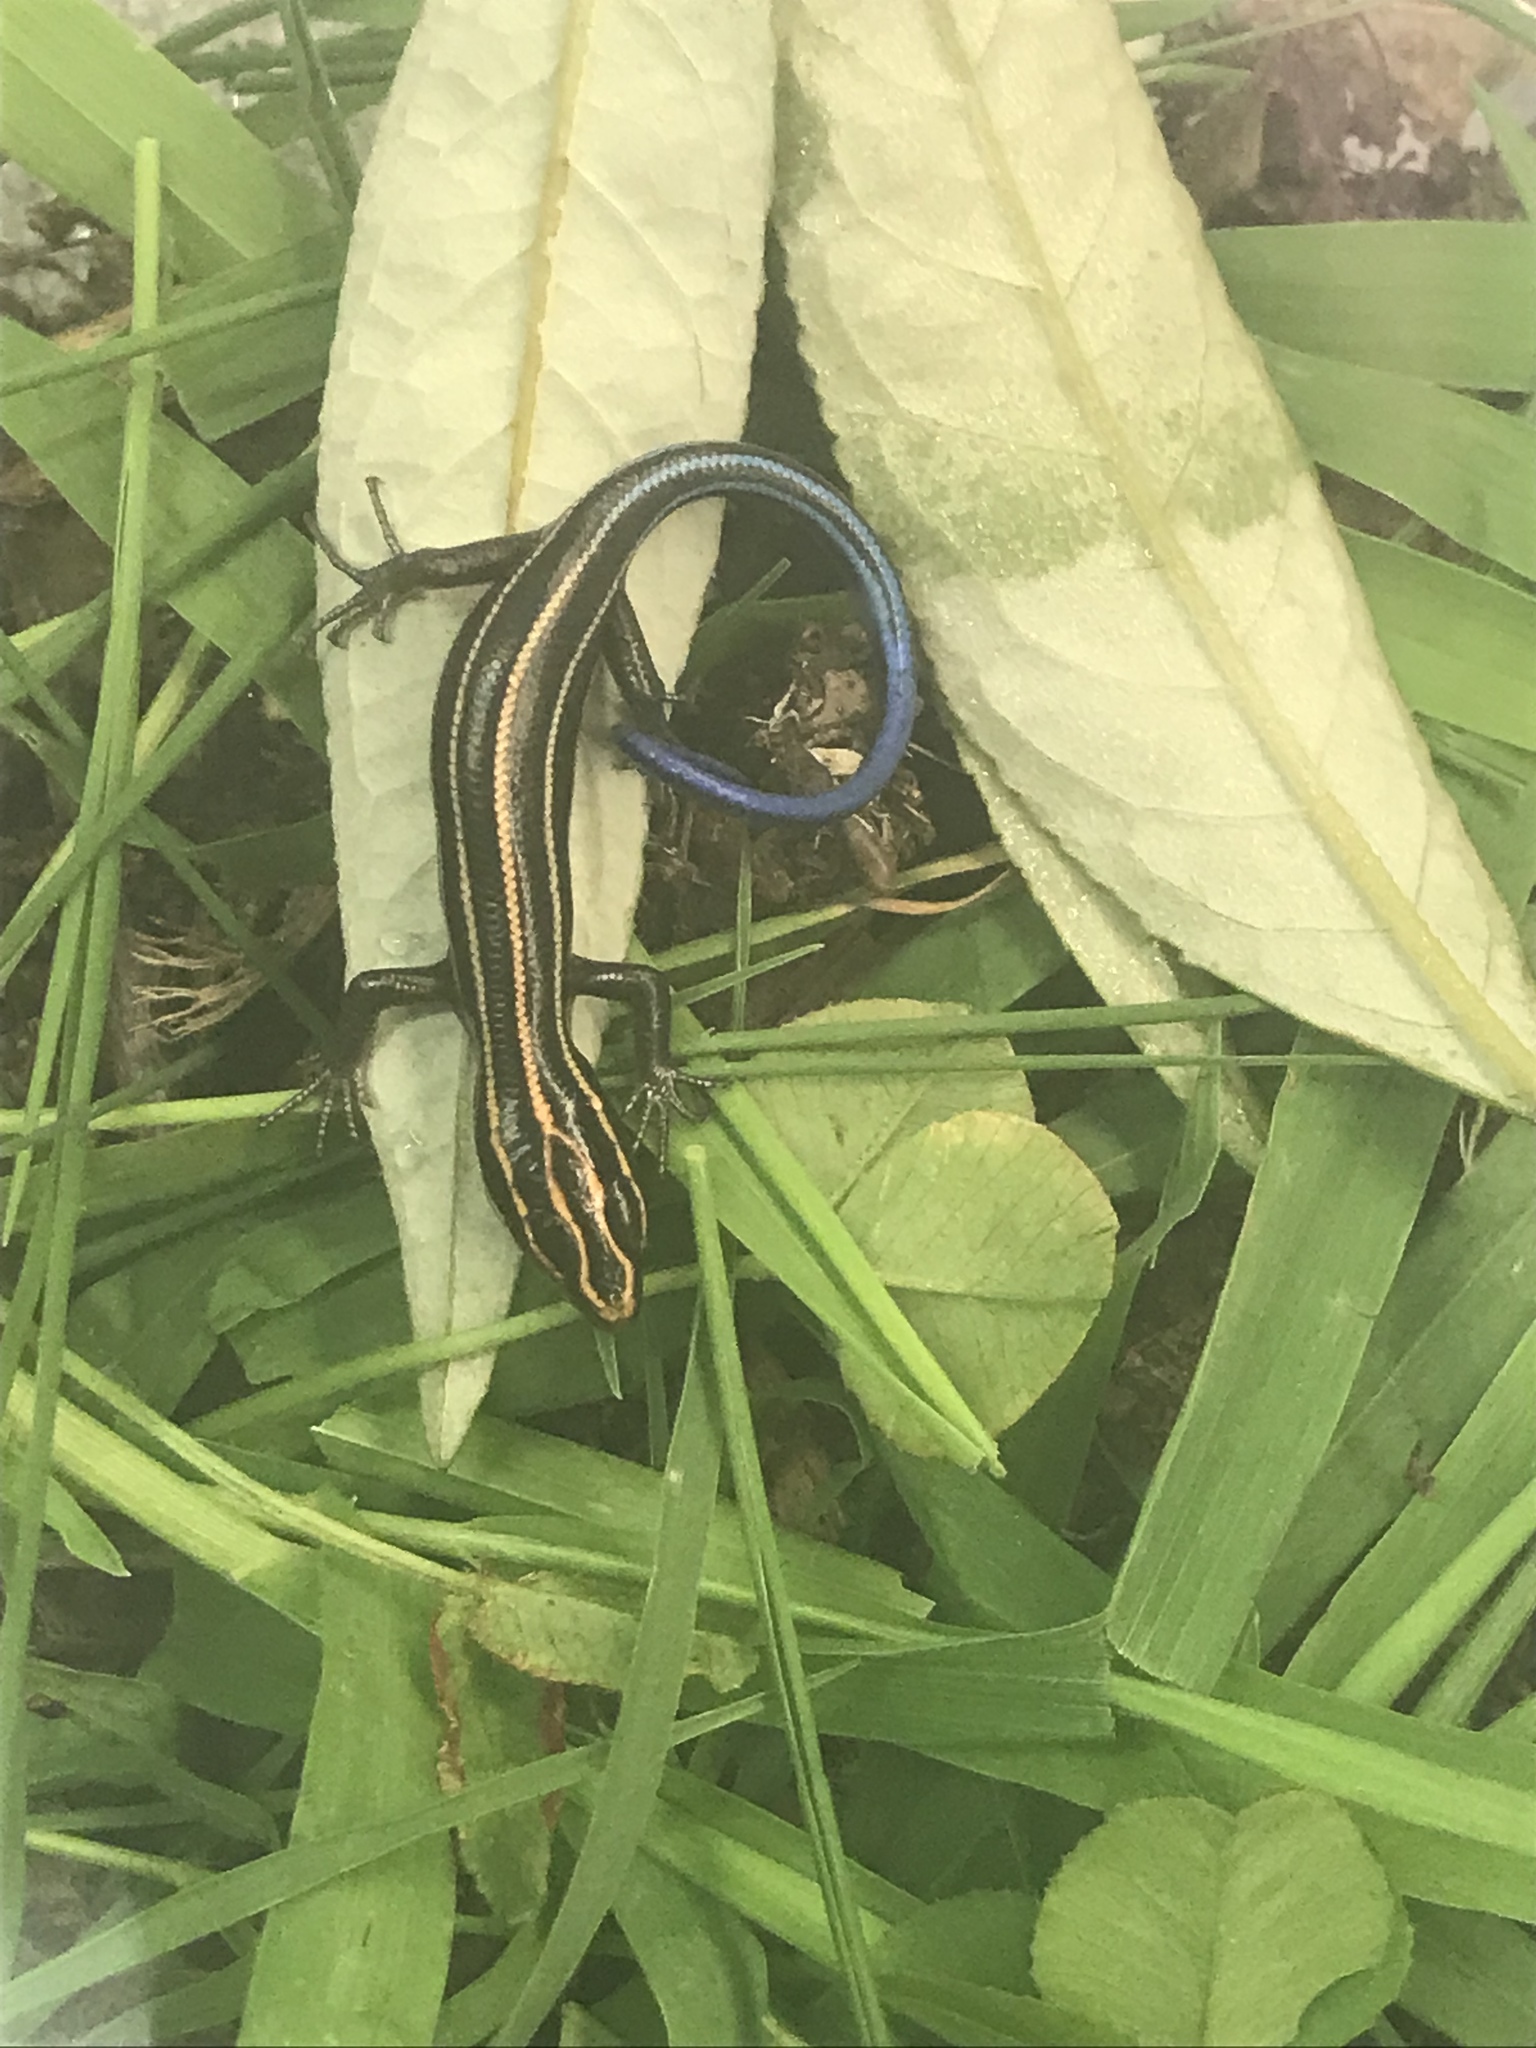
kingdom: Animalia
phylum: Chordata
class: Squamata
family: Scincidae
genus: Plestiodon
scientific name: Plestiodon fasciatus
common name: Five-lined skink
